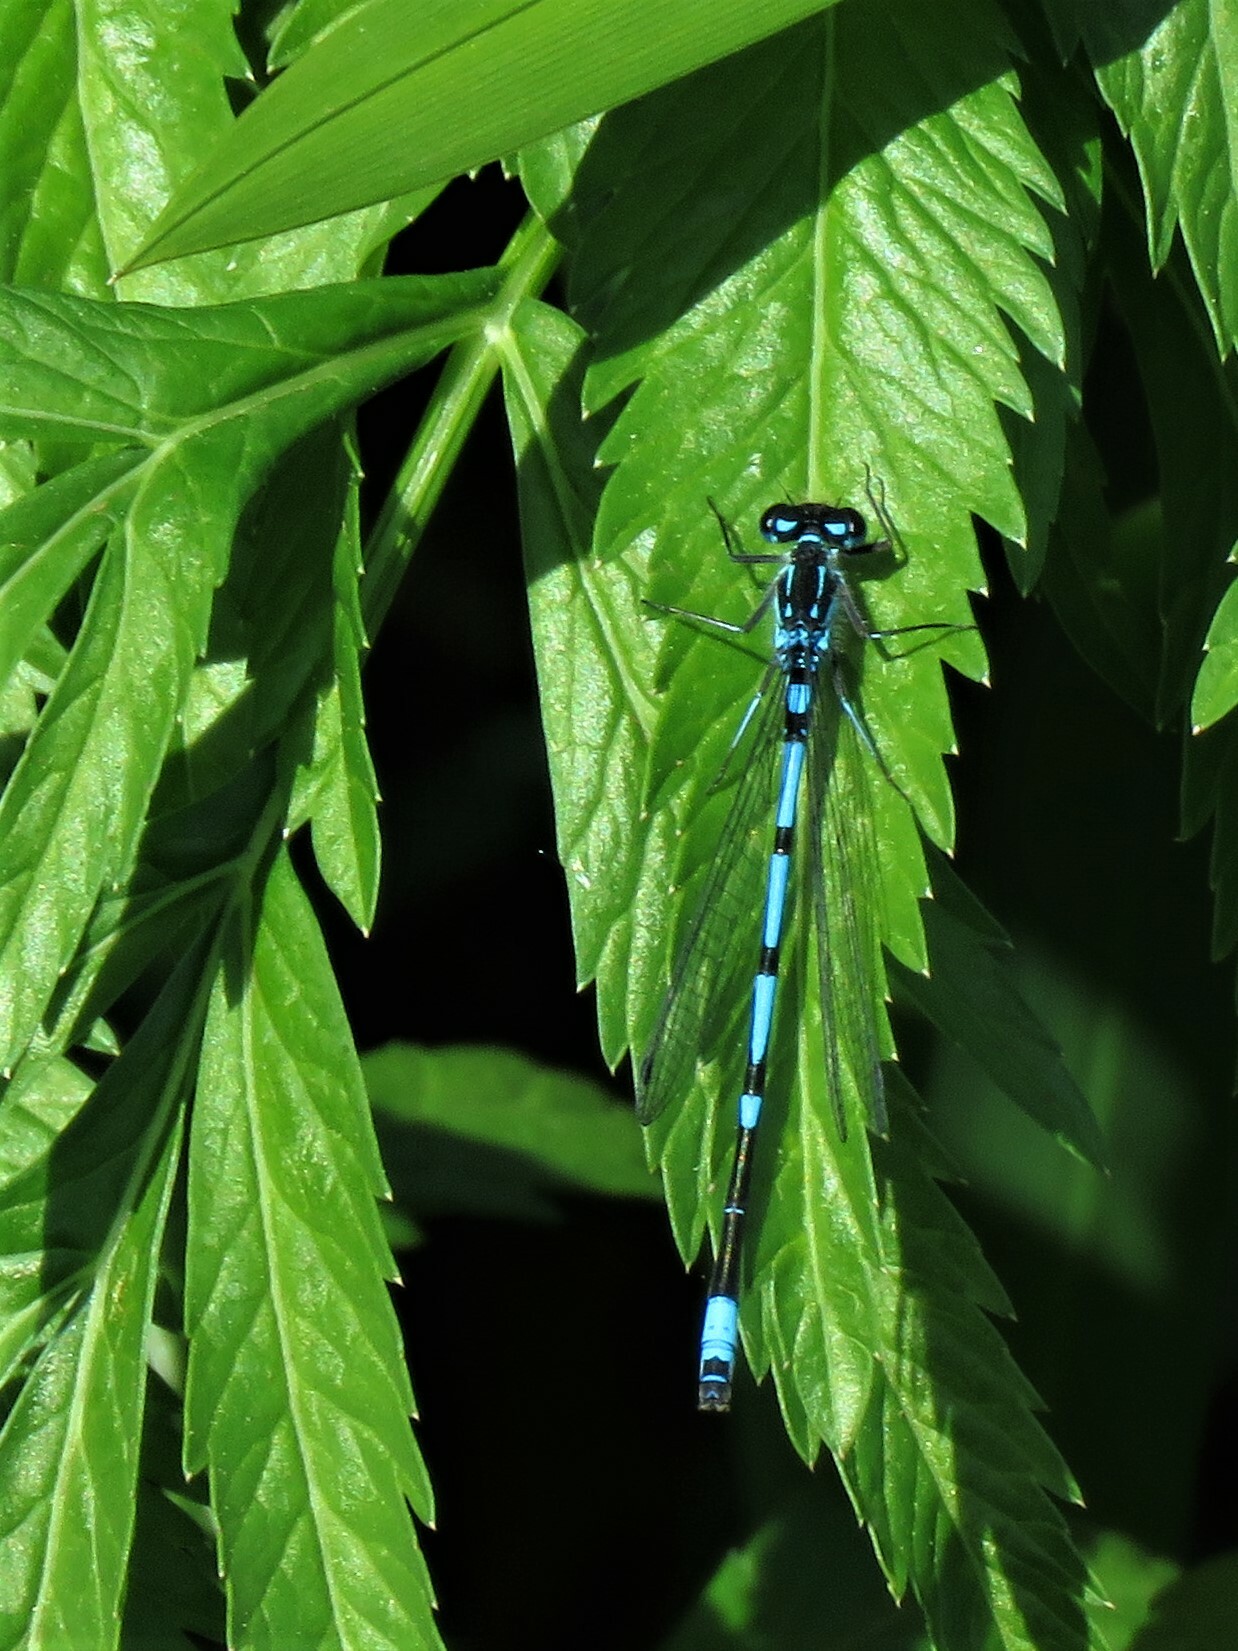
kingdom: Animalia
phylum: Arthropoda
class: Insecta
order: Odonata
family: Coenagrionidae
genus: Coenagrion
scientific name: Coenagrion pulchellum
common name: Variable bluet
